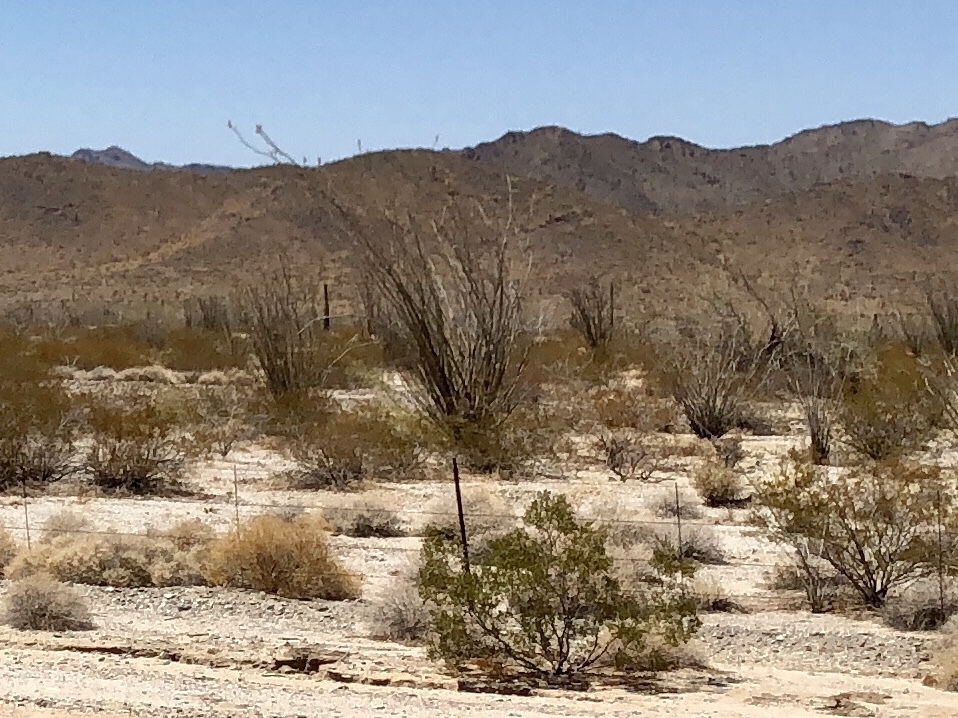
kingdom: Plantae
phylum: Tracheophyta
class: Magnoliopsida
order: Ericales
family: Fouquieriaceae
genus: Fouquieria
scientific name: Fouquieria splendens
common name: Vine-cactus
